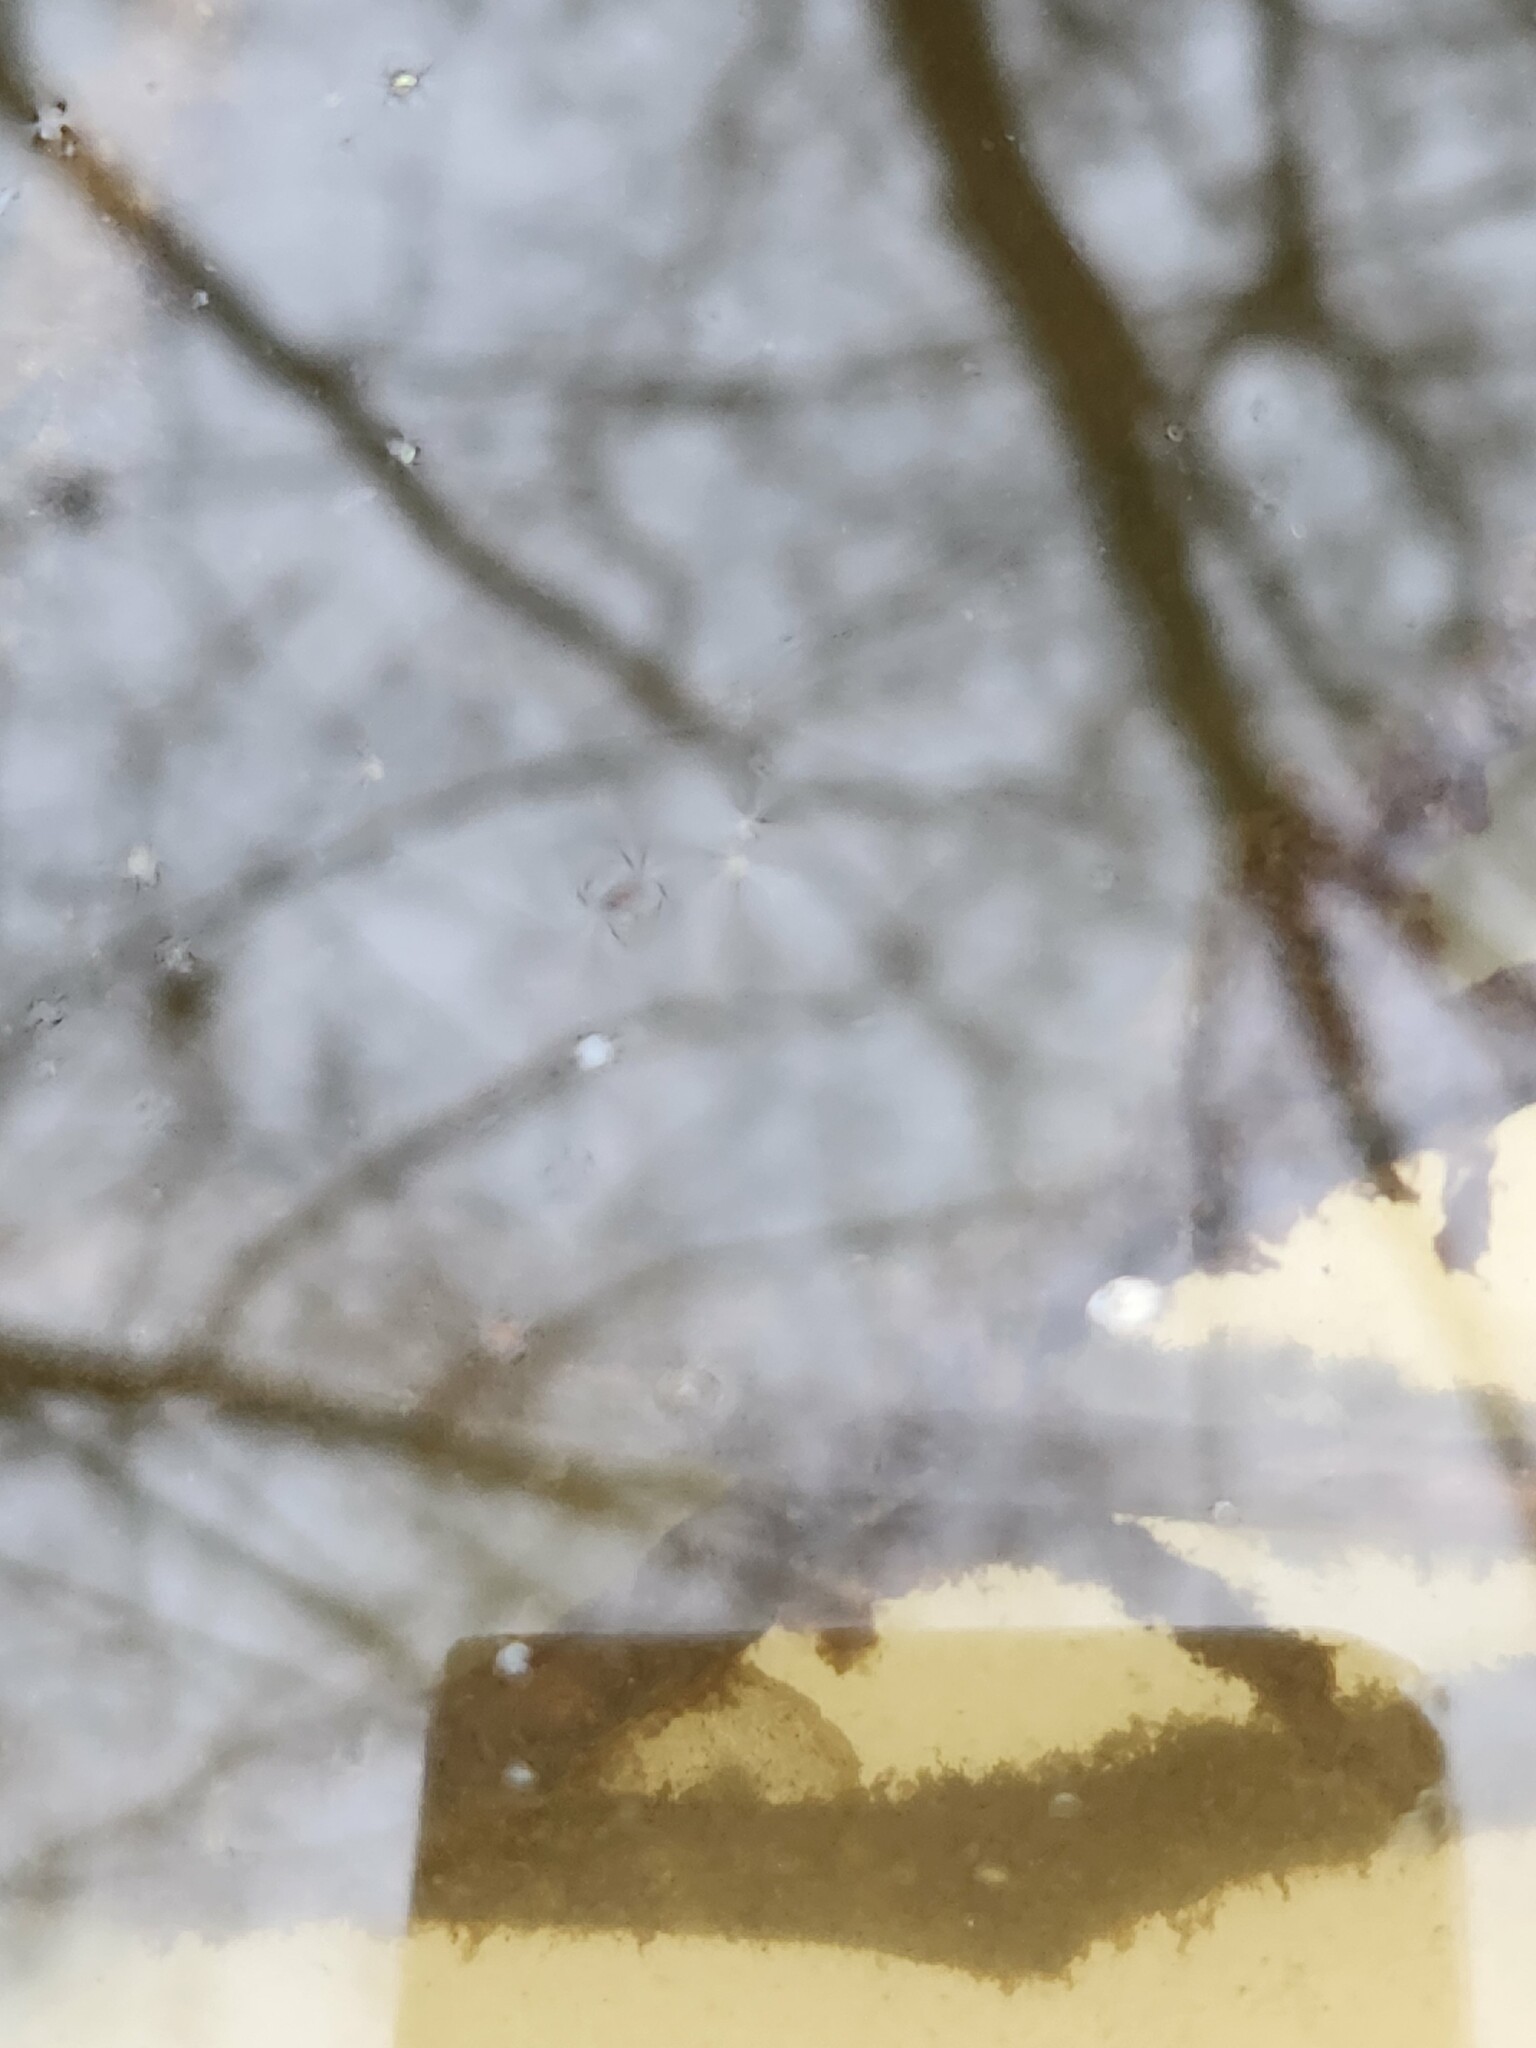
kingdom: Animalia
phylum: Chordata
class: Amphibia
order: Caudata
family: Ambystomatidae
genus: Ambystoma
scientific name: Ambystoma macrodactylum
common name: Long-toed salamander
